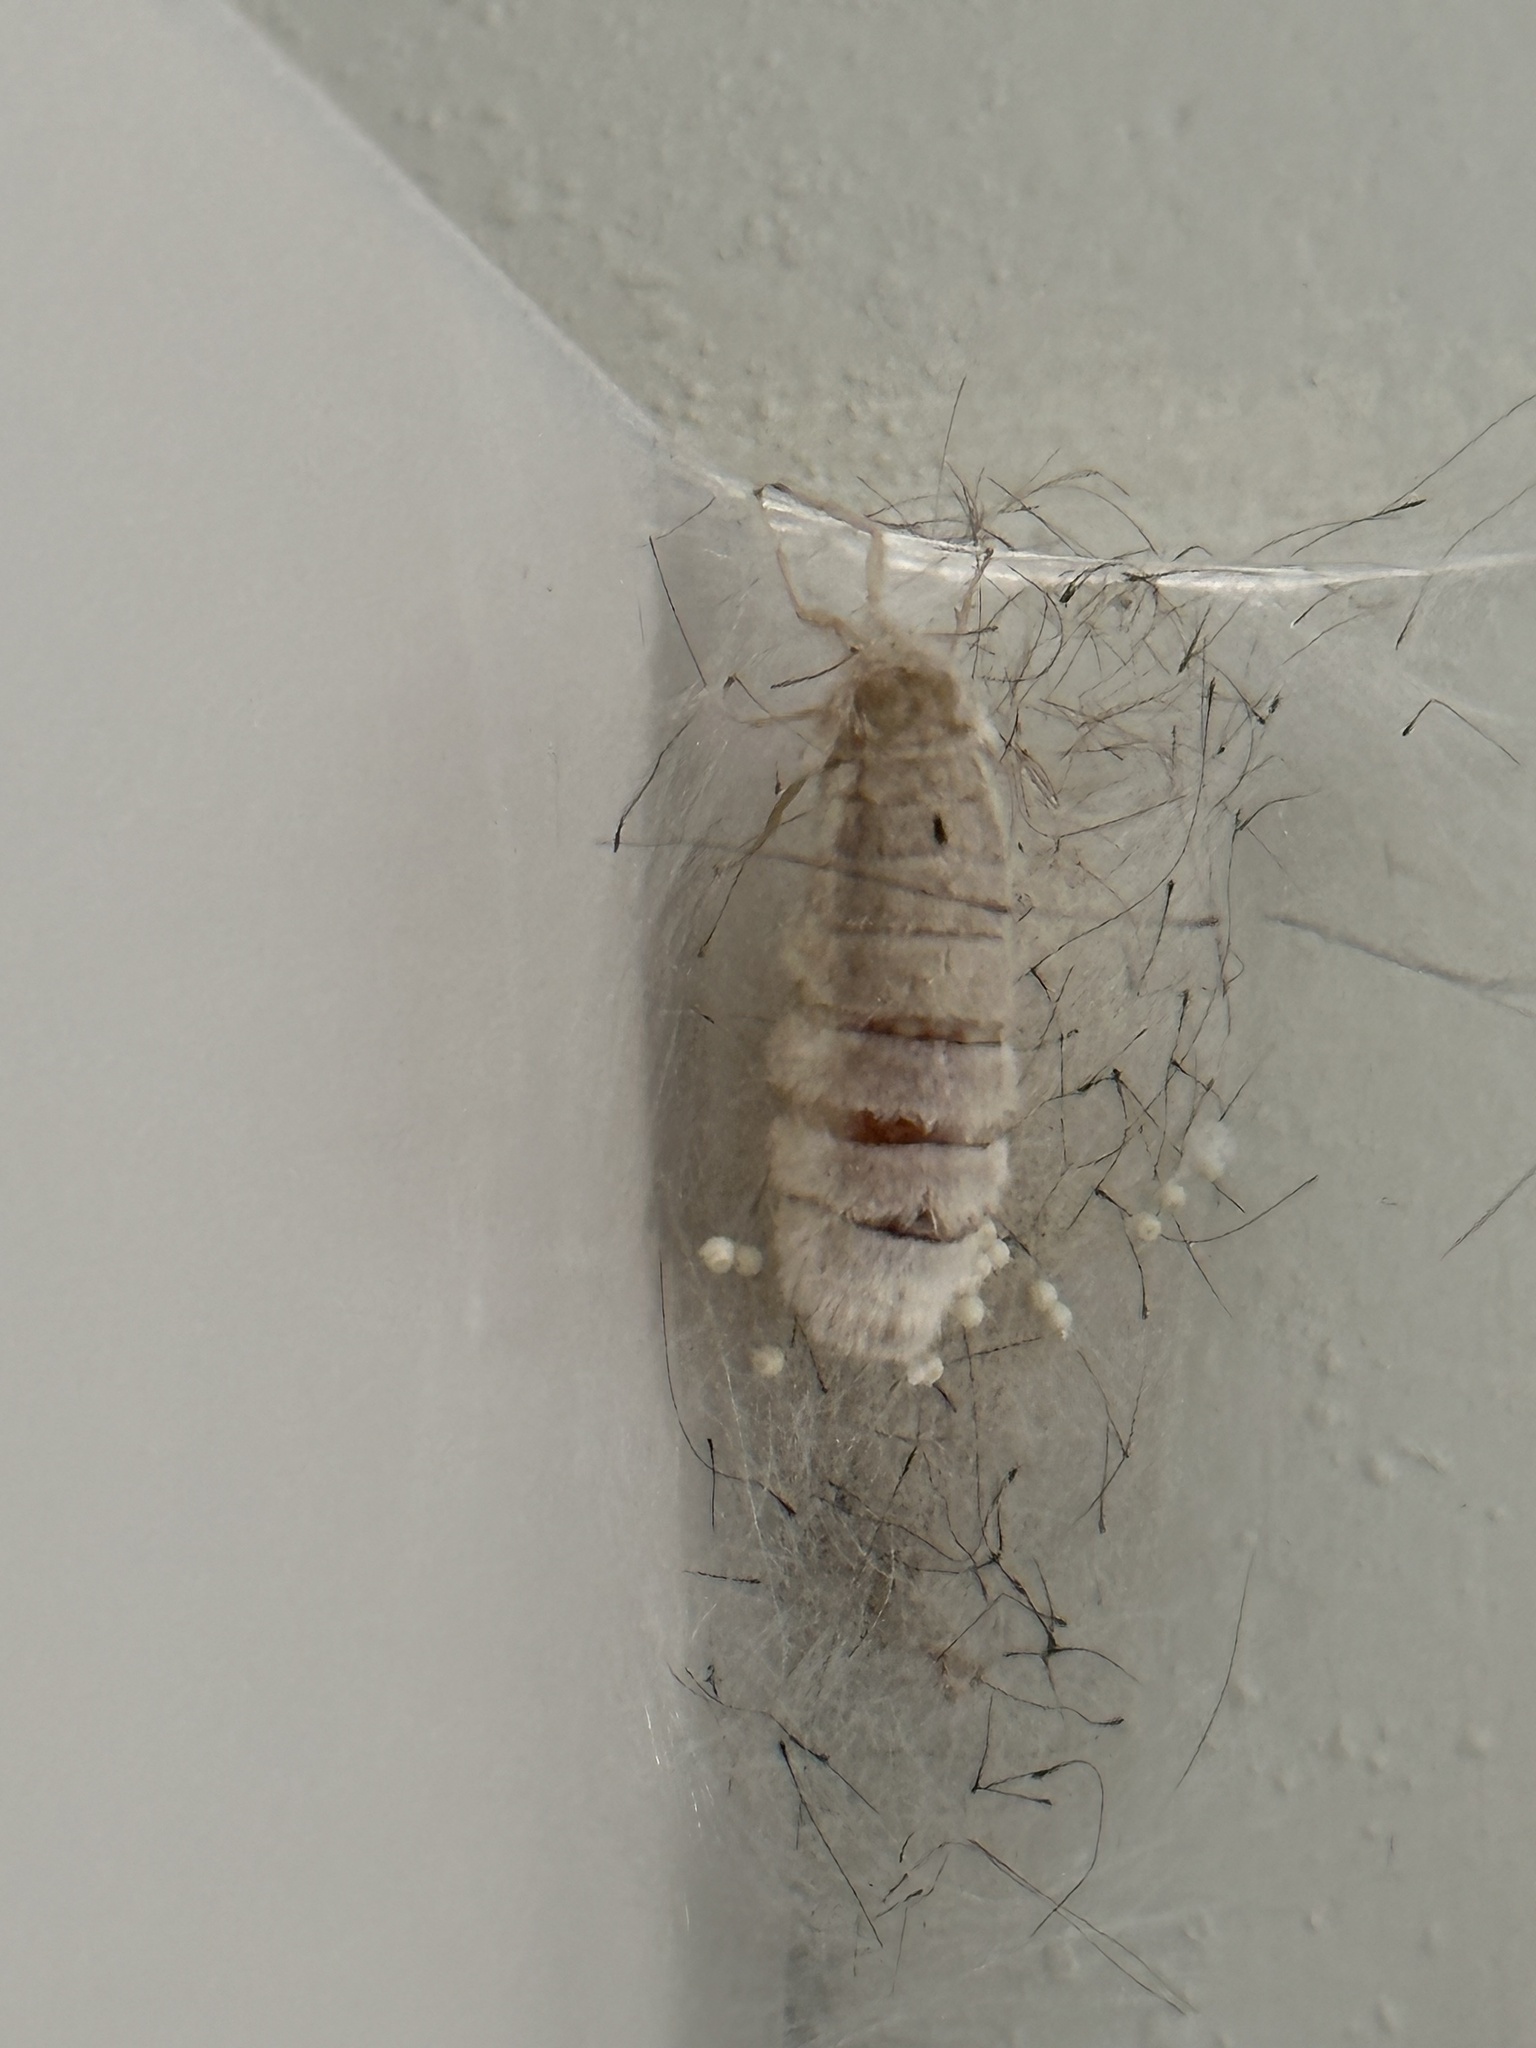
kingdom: Animalia
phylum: Arthropoda
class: Insecta
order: Lepidoptera
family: Erebidae
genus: Orgyia
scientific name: Orgyia leucostigma
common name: White-marked tussock moth
